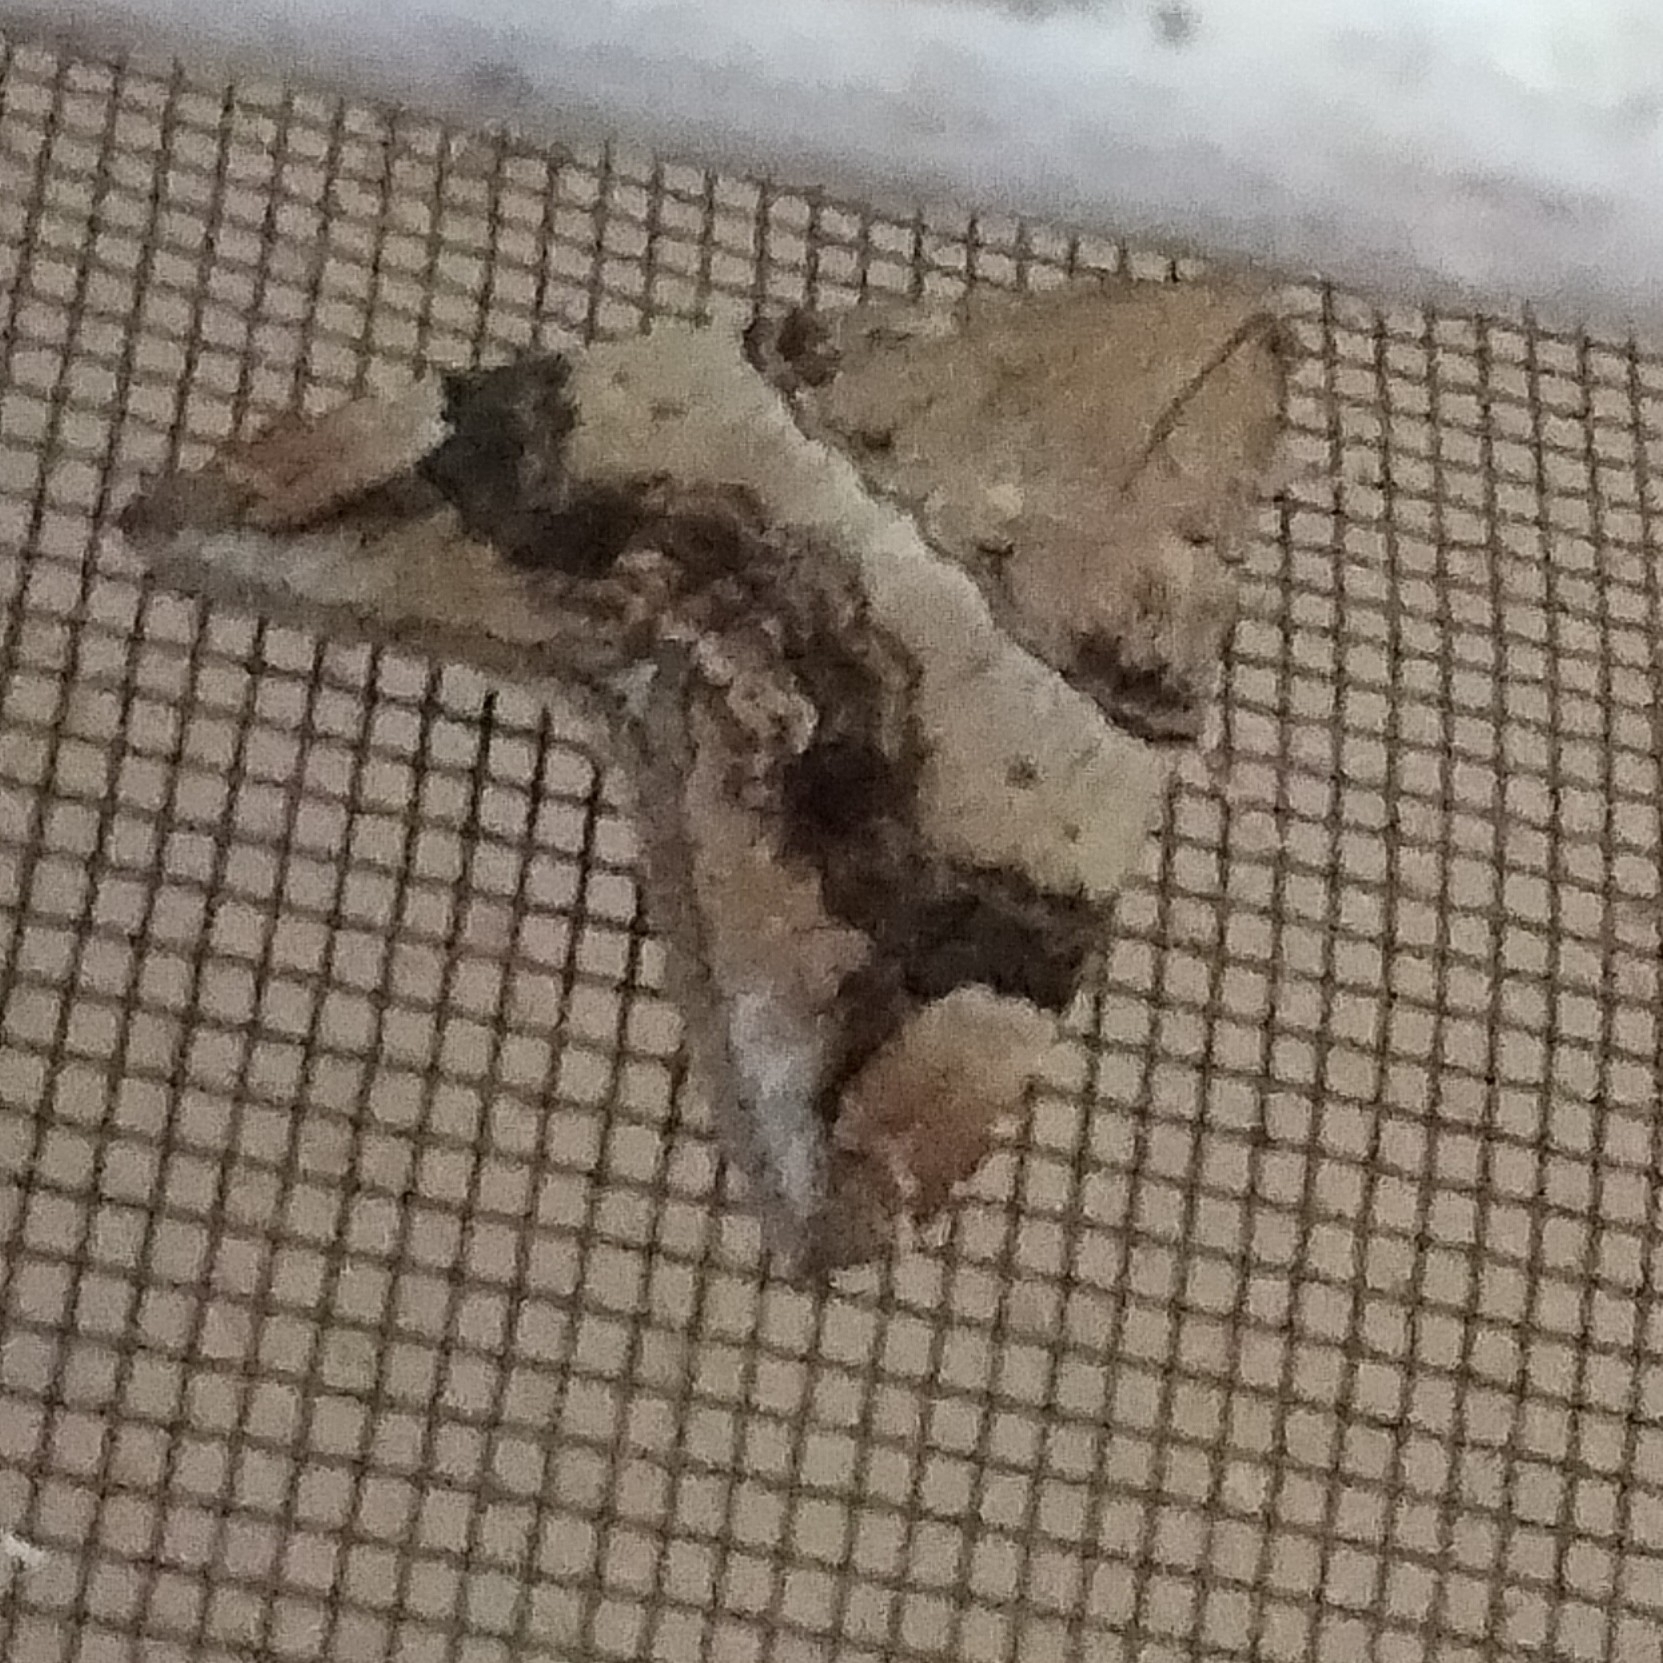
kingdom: Animalia
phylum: Arthropoda
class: Insecta
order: Lepidoptera
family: Erebidae
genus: Achaea
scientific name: Achaea janata
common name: Croton caterpillar
